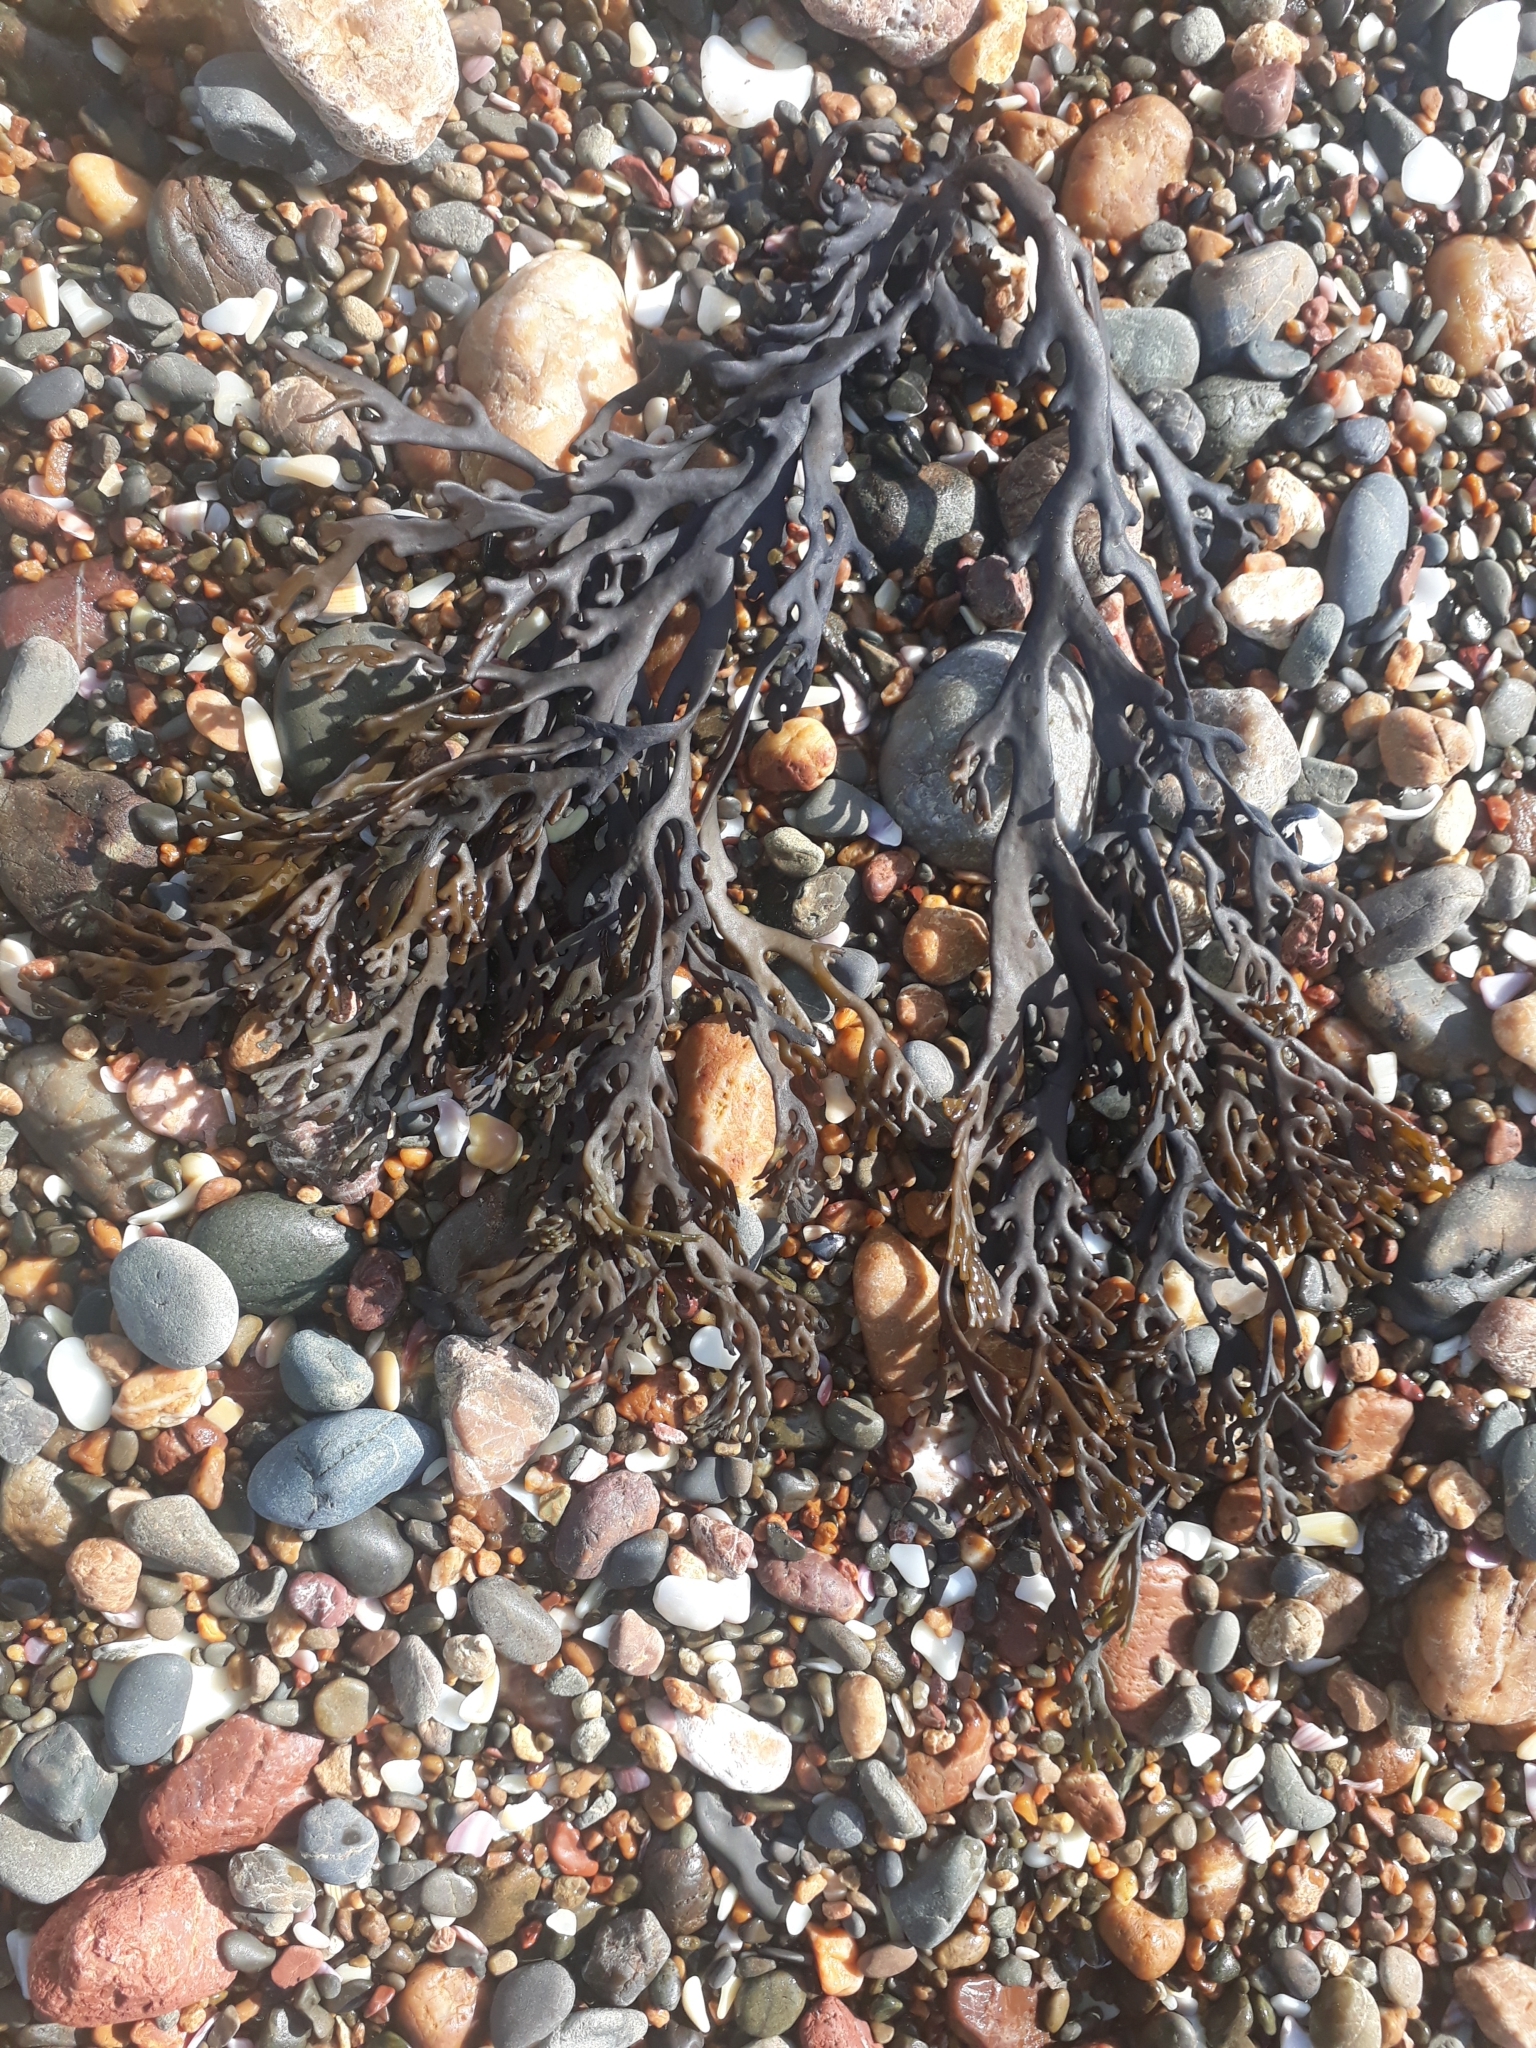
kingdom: Chromista
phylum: Ochrophyta
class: Phaeophyceae
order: Fucales
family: Xiphophoraceae
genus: Xiphophora
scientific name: Xiphophora chondrophylla
